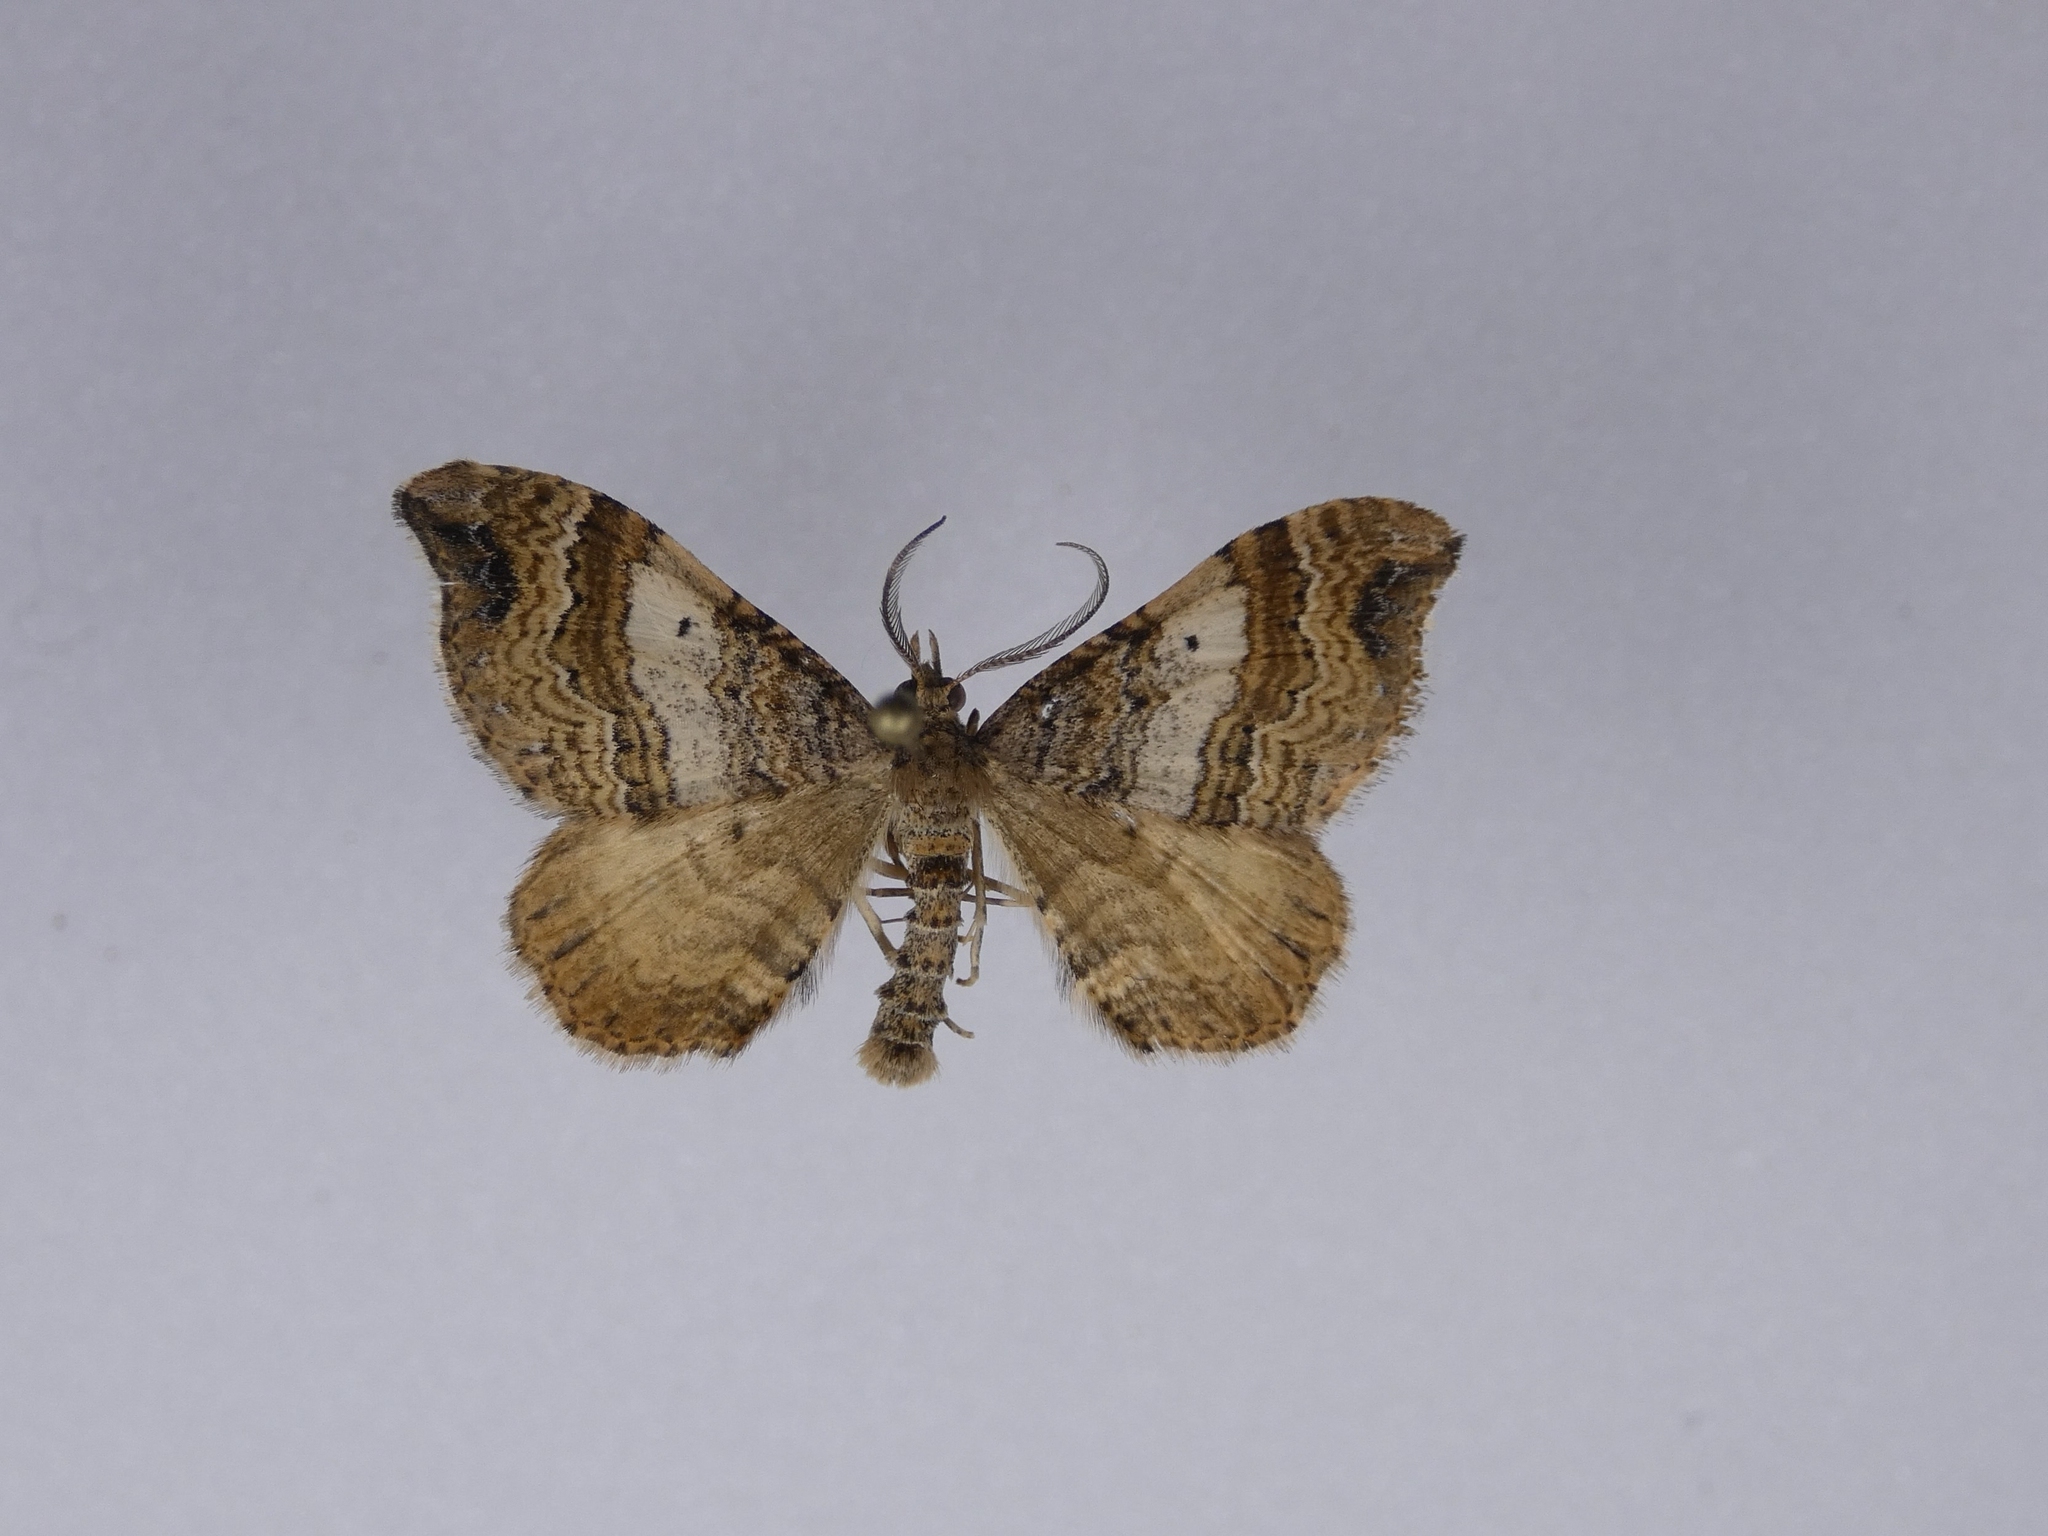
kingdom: Animalia
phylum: Arthropoda
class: Insecta
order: Lepidoptera
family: Geometridae
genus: Homodotis
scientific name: Homodotis megaspilata
